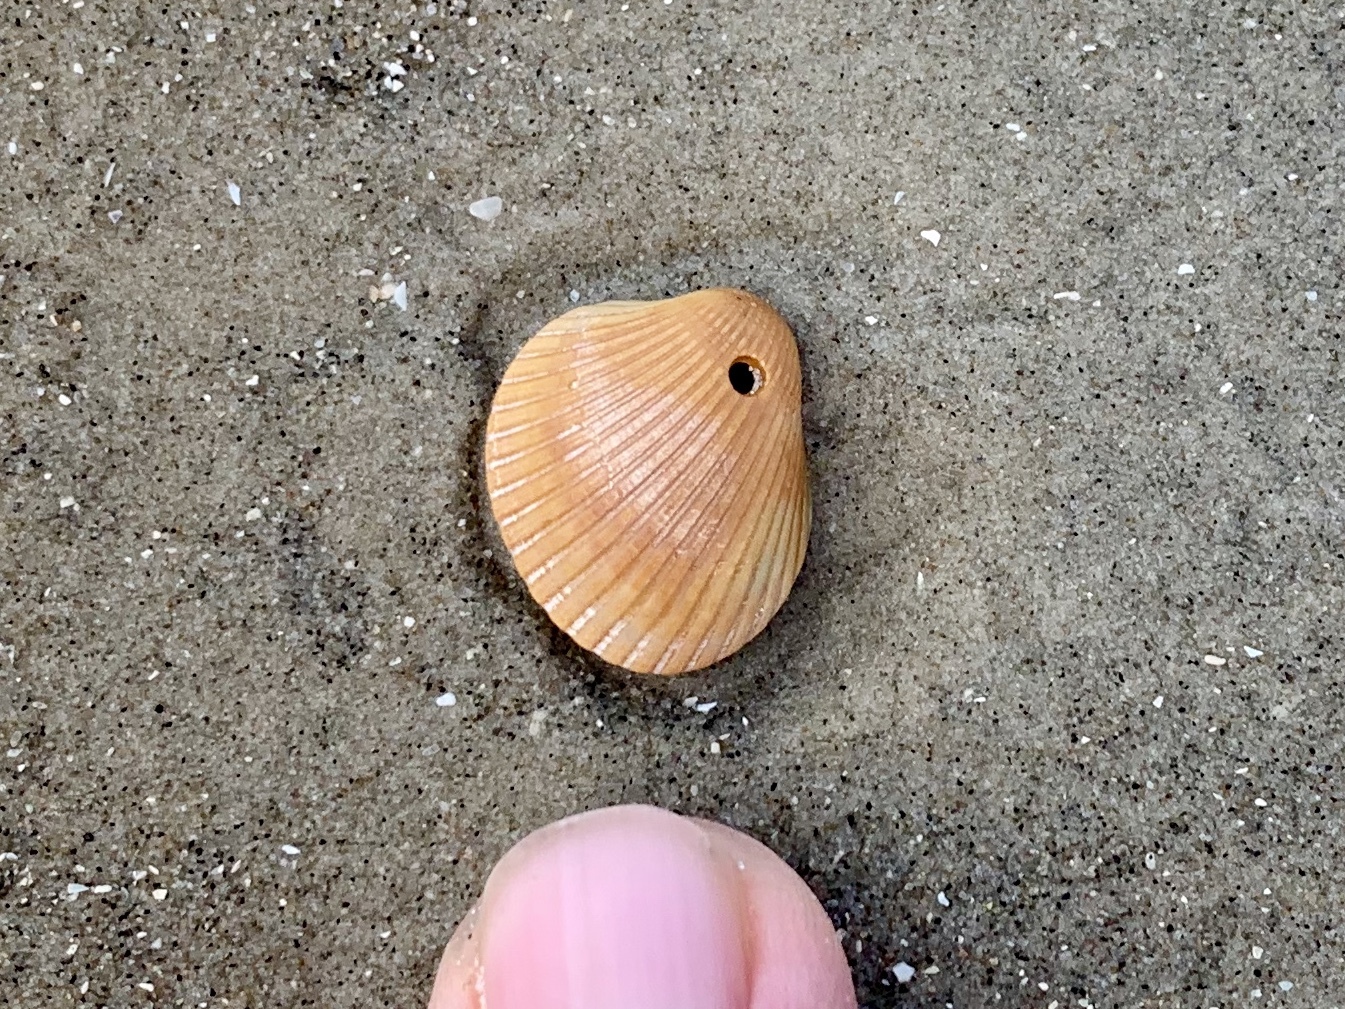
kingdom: Animalia
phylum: Mollusca
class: Bivalvia
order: Arcida
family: Arcidae
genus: Lunarca
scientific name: Lunarca ovalis
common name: Blood ark
